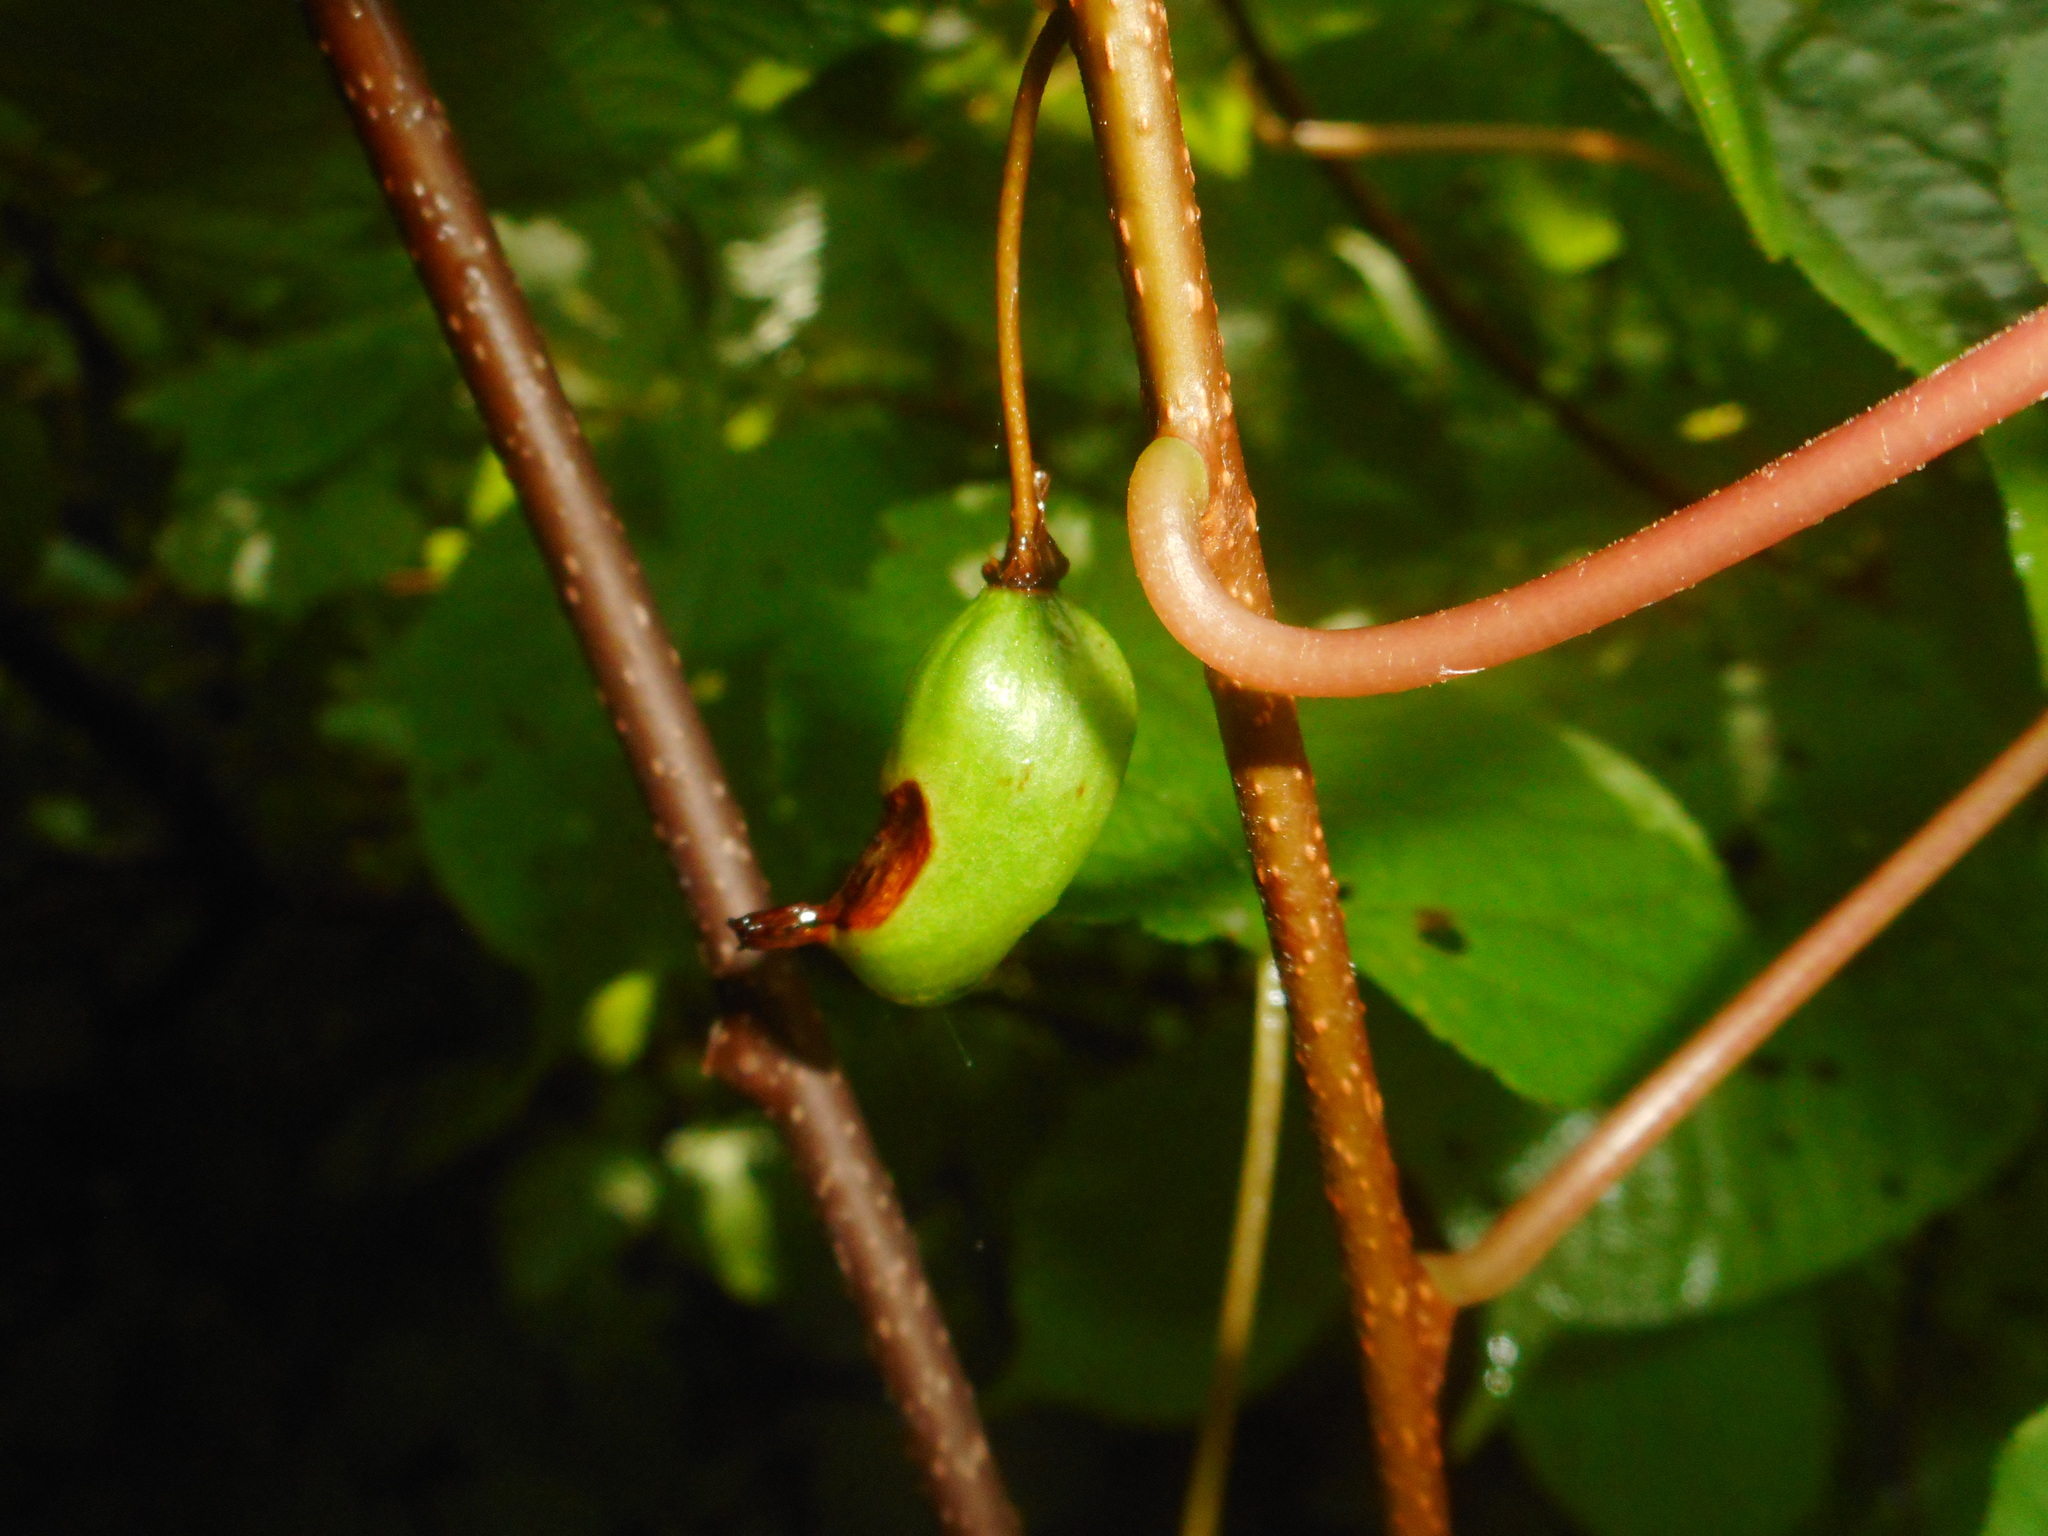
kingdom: Plantae
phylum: Tracheophyta
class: Magnoliopsida
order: Ericales
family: Actinidiaceae
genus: Actinidia
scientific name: Actinidia kolomikta
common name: Arctic beauty kiwi
